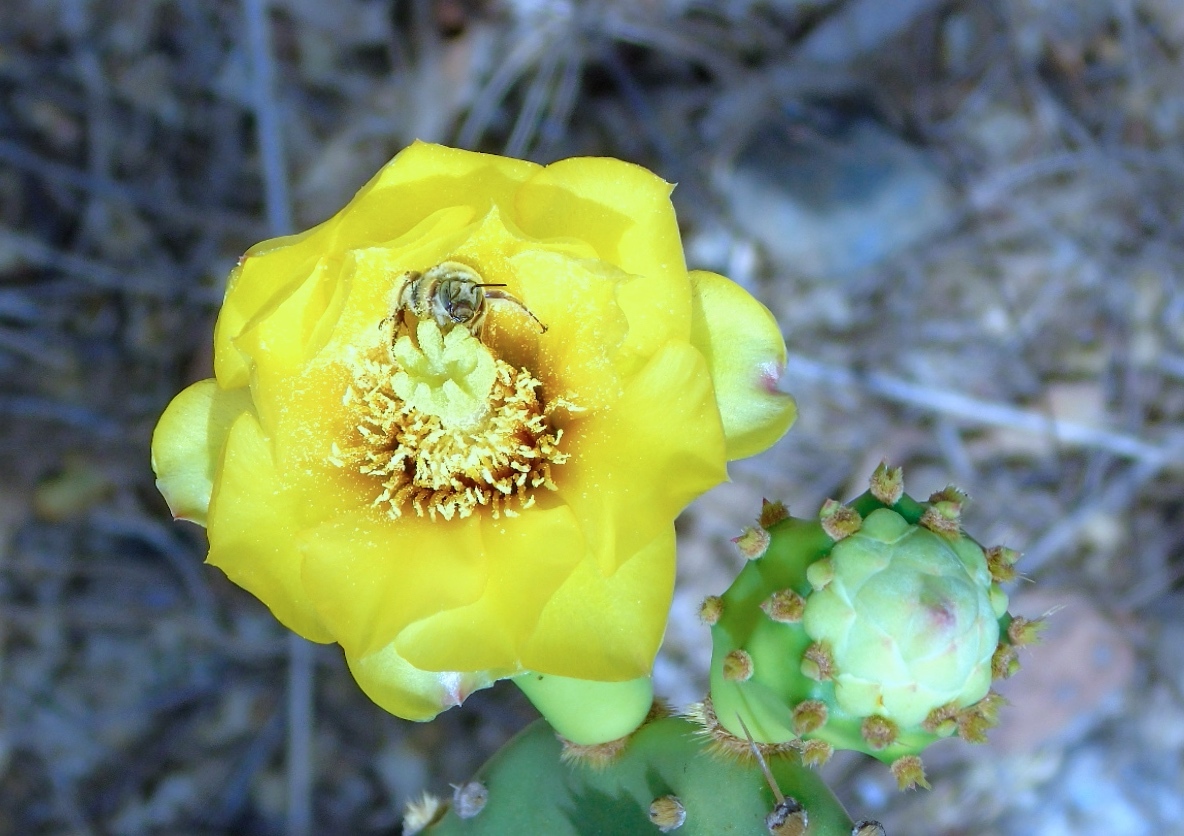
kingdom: Plantae
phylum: Tracheophyta
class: Magnoliopsida
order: Caryophyllales
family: Cactaceae
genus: Opuntia
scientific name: Opuntia
